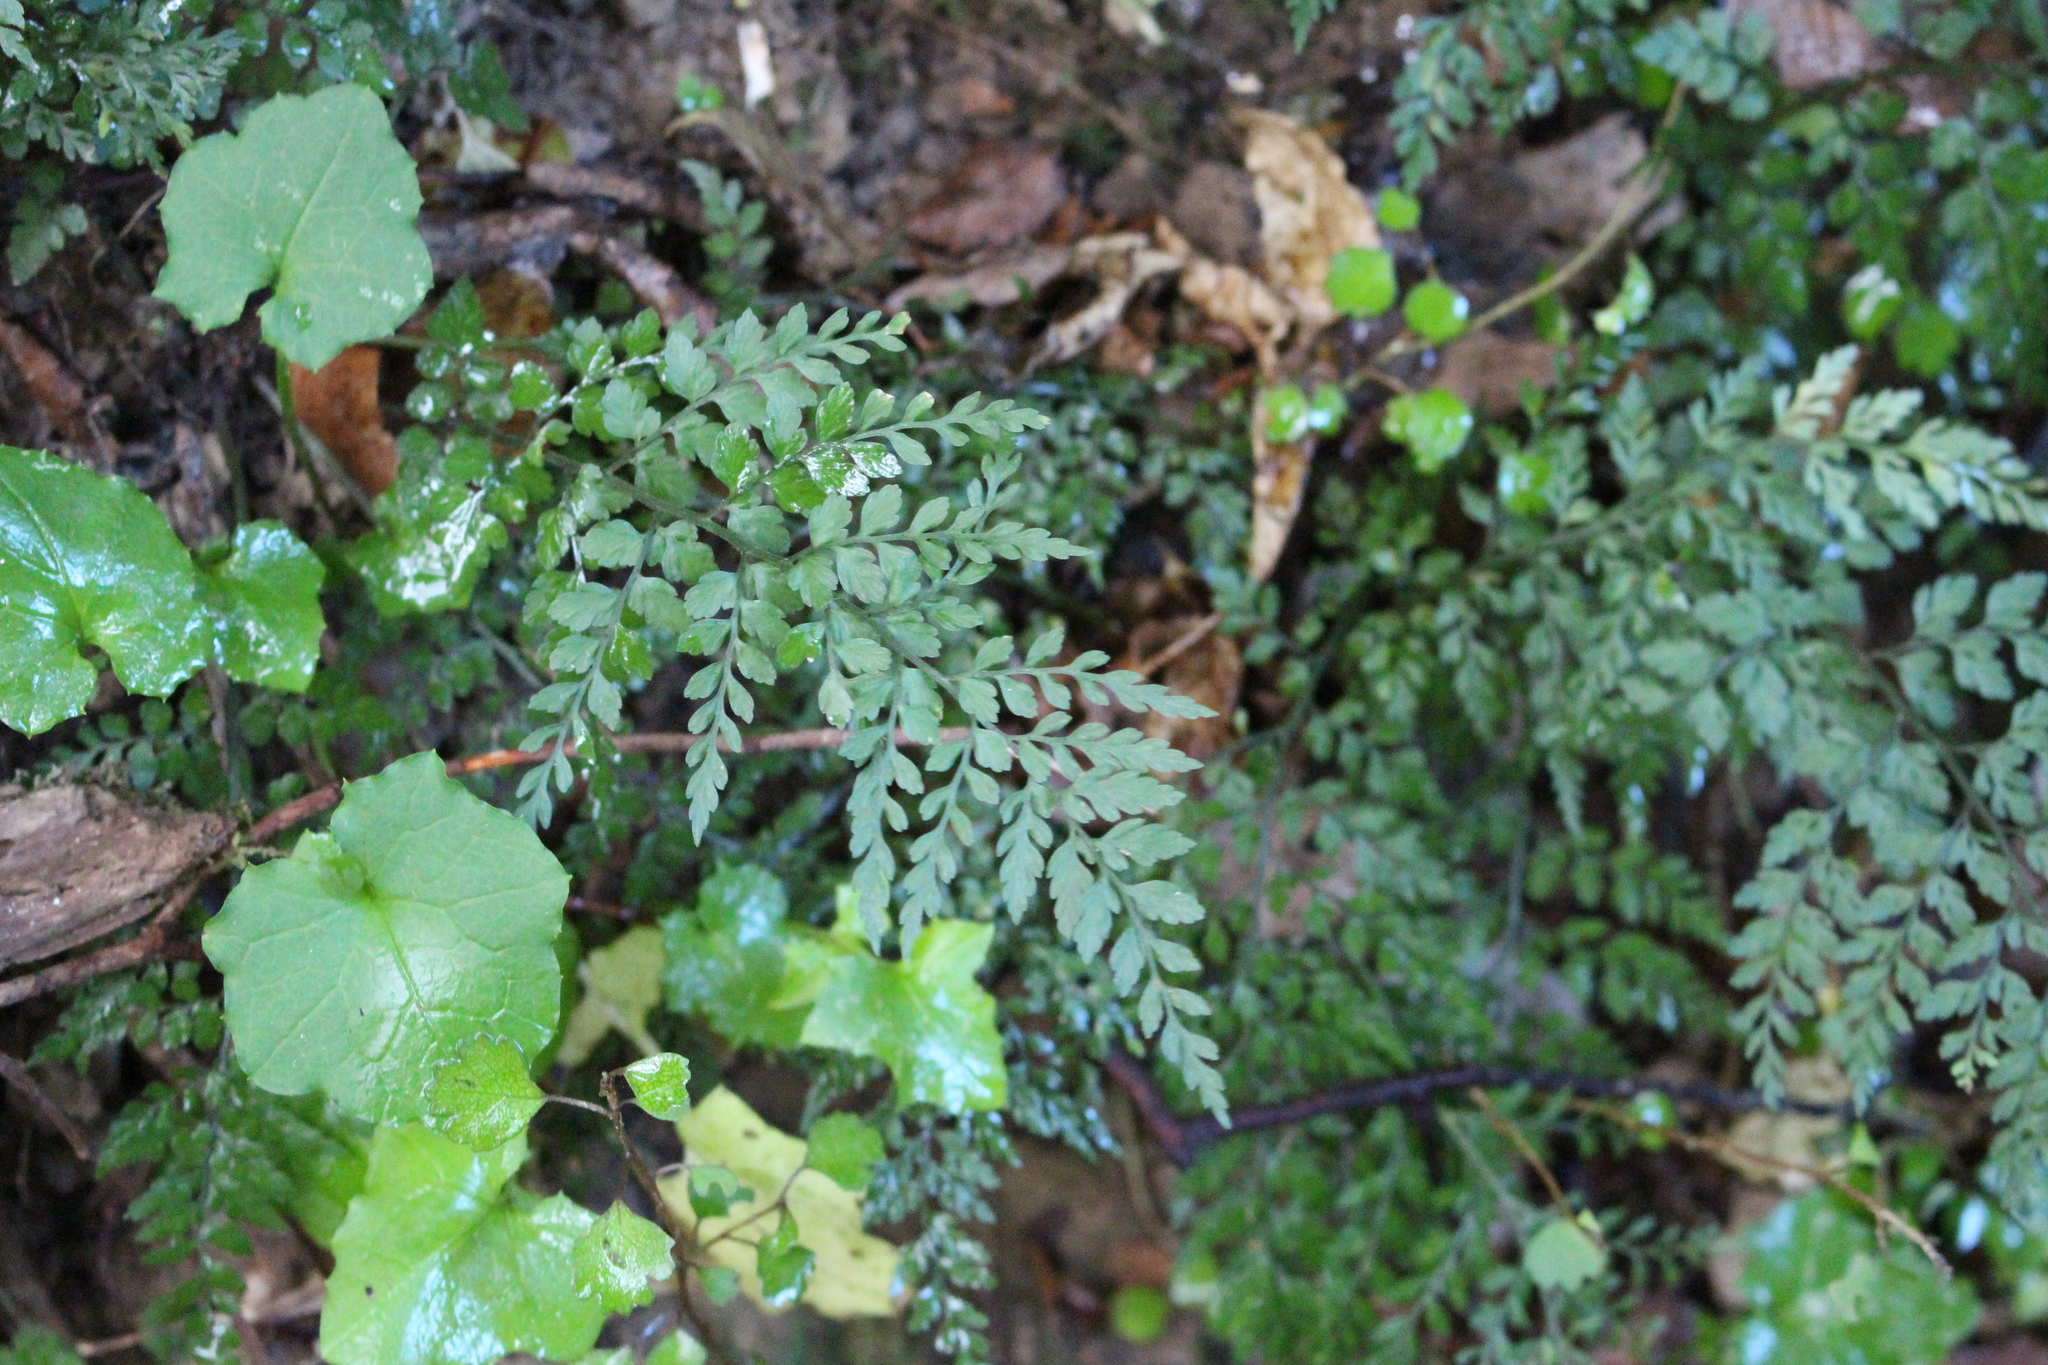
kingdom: Plantae
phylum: Tracheophyta
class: Polypodiopsida
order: Polypodiales
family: Aspleniaceae
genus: Asplenium
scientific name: Asplenium hookerianum
